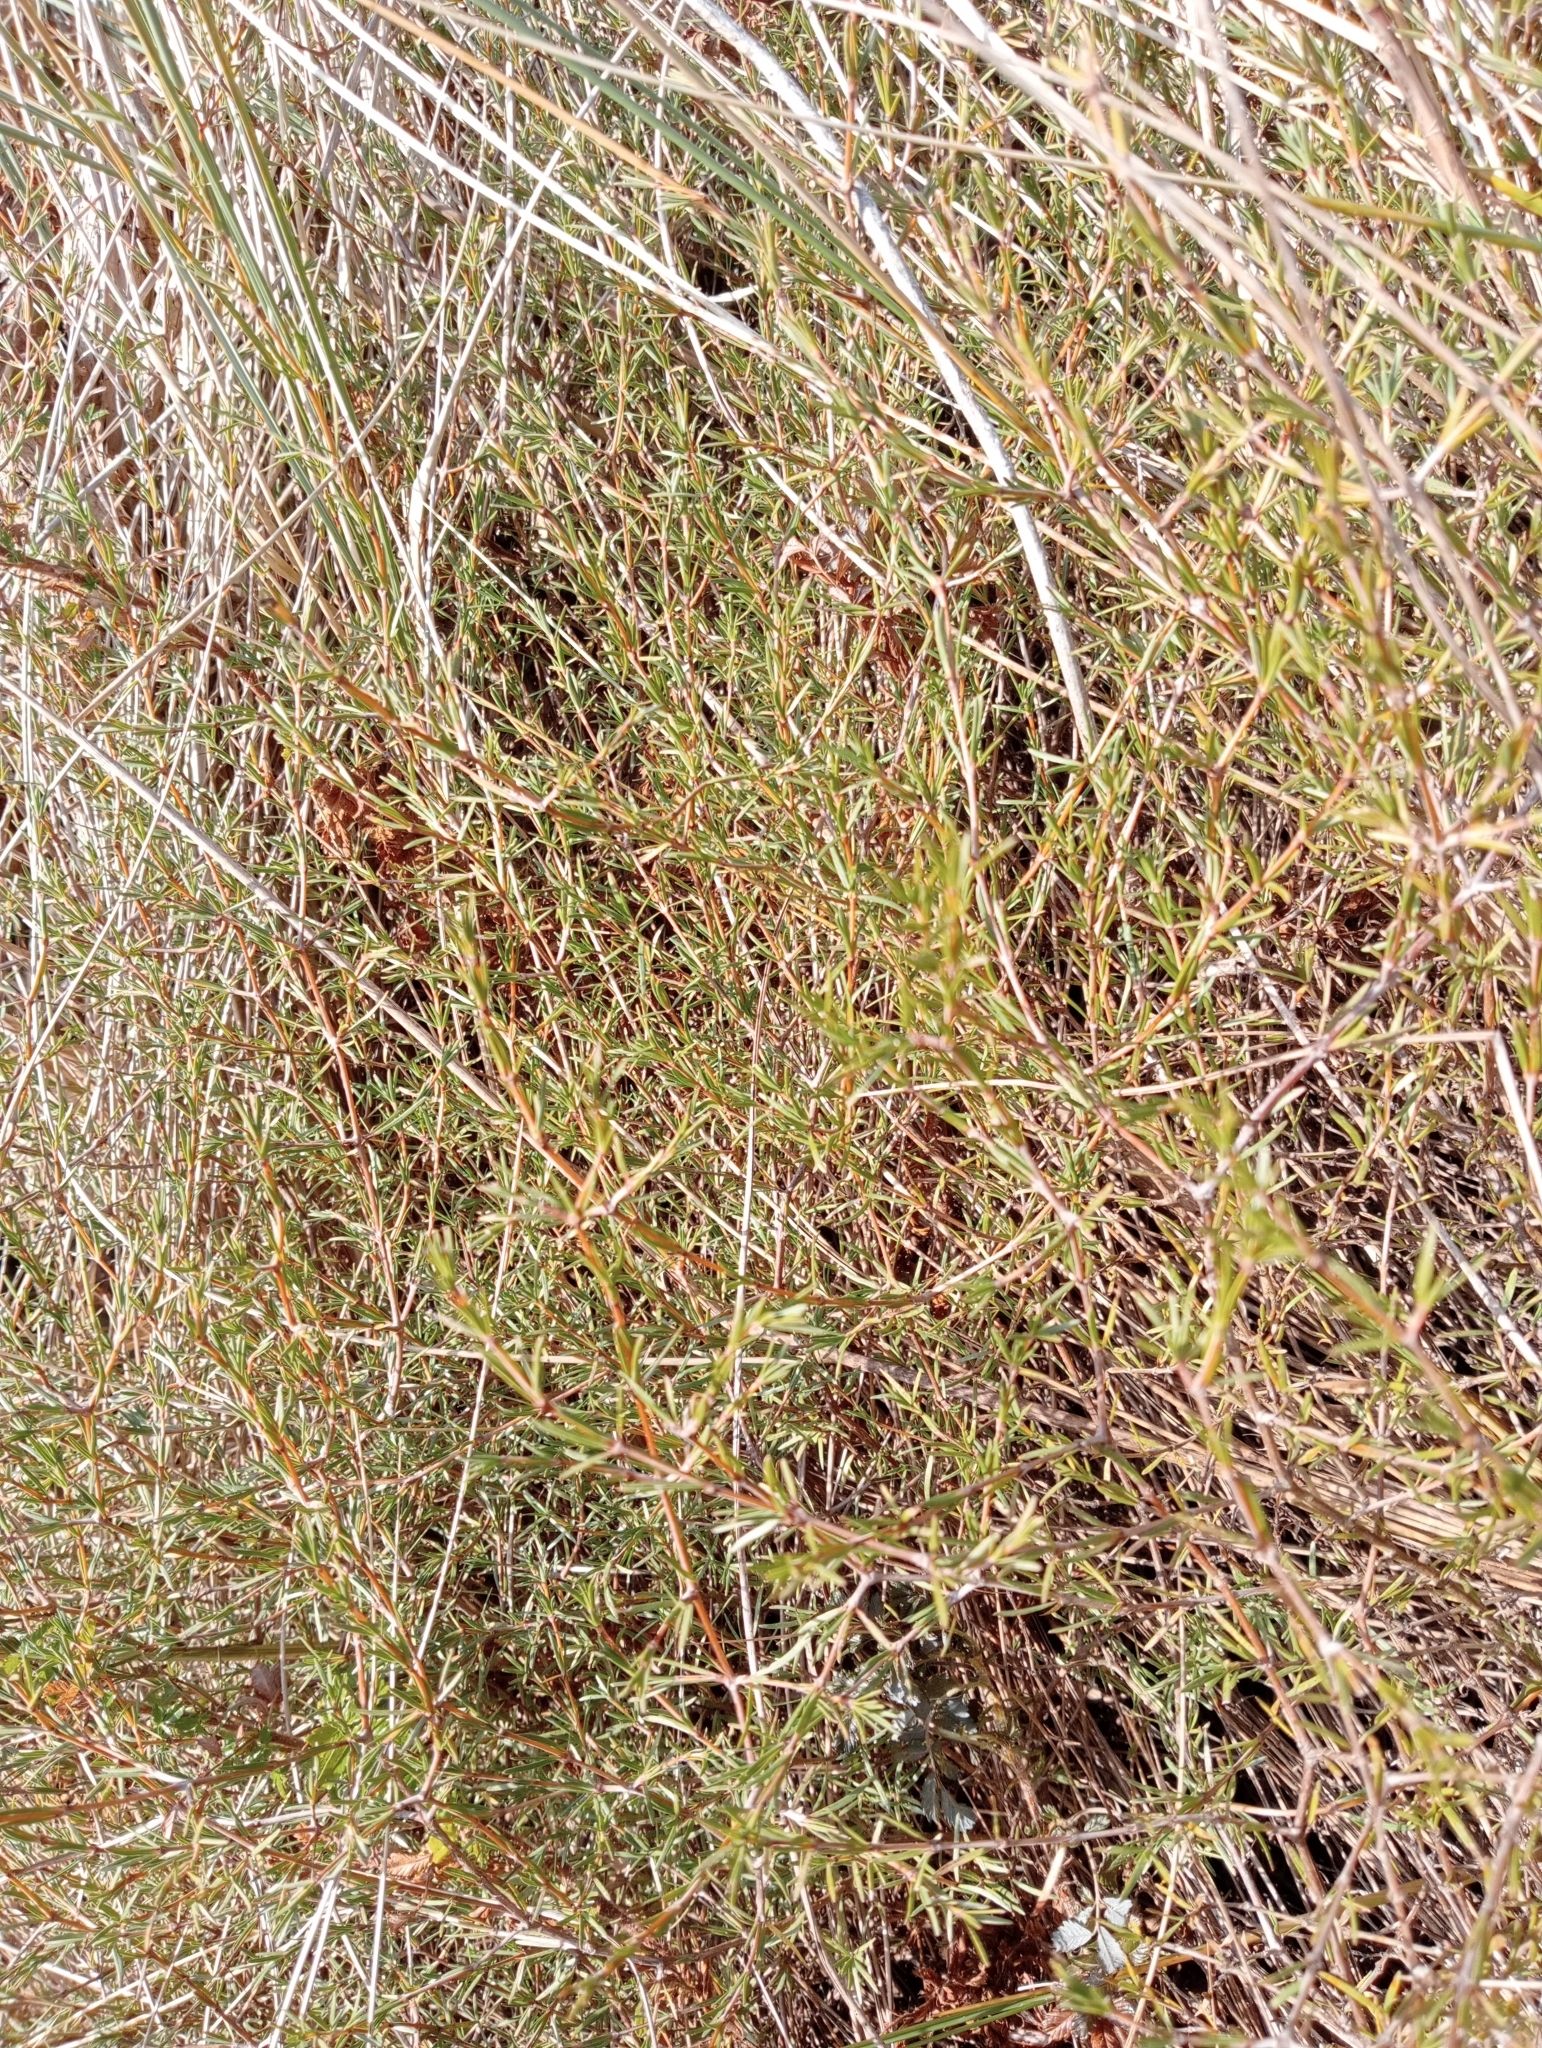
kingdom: Plantae
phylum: Tracheophyta
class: Magnoliopsida
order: Gentianales
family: Rubiaceae
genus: Coprosma
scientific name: Coprosma acerosa
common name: Sand coprosma
